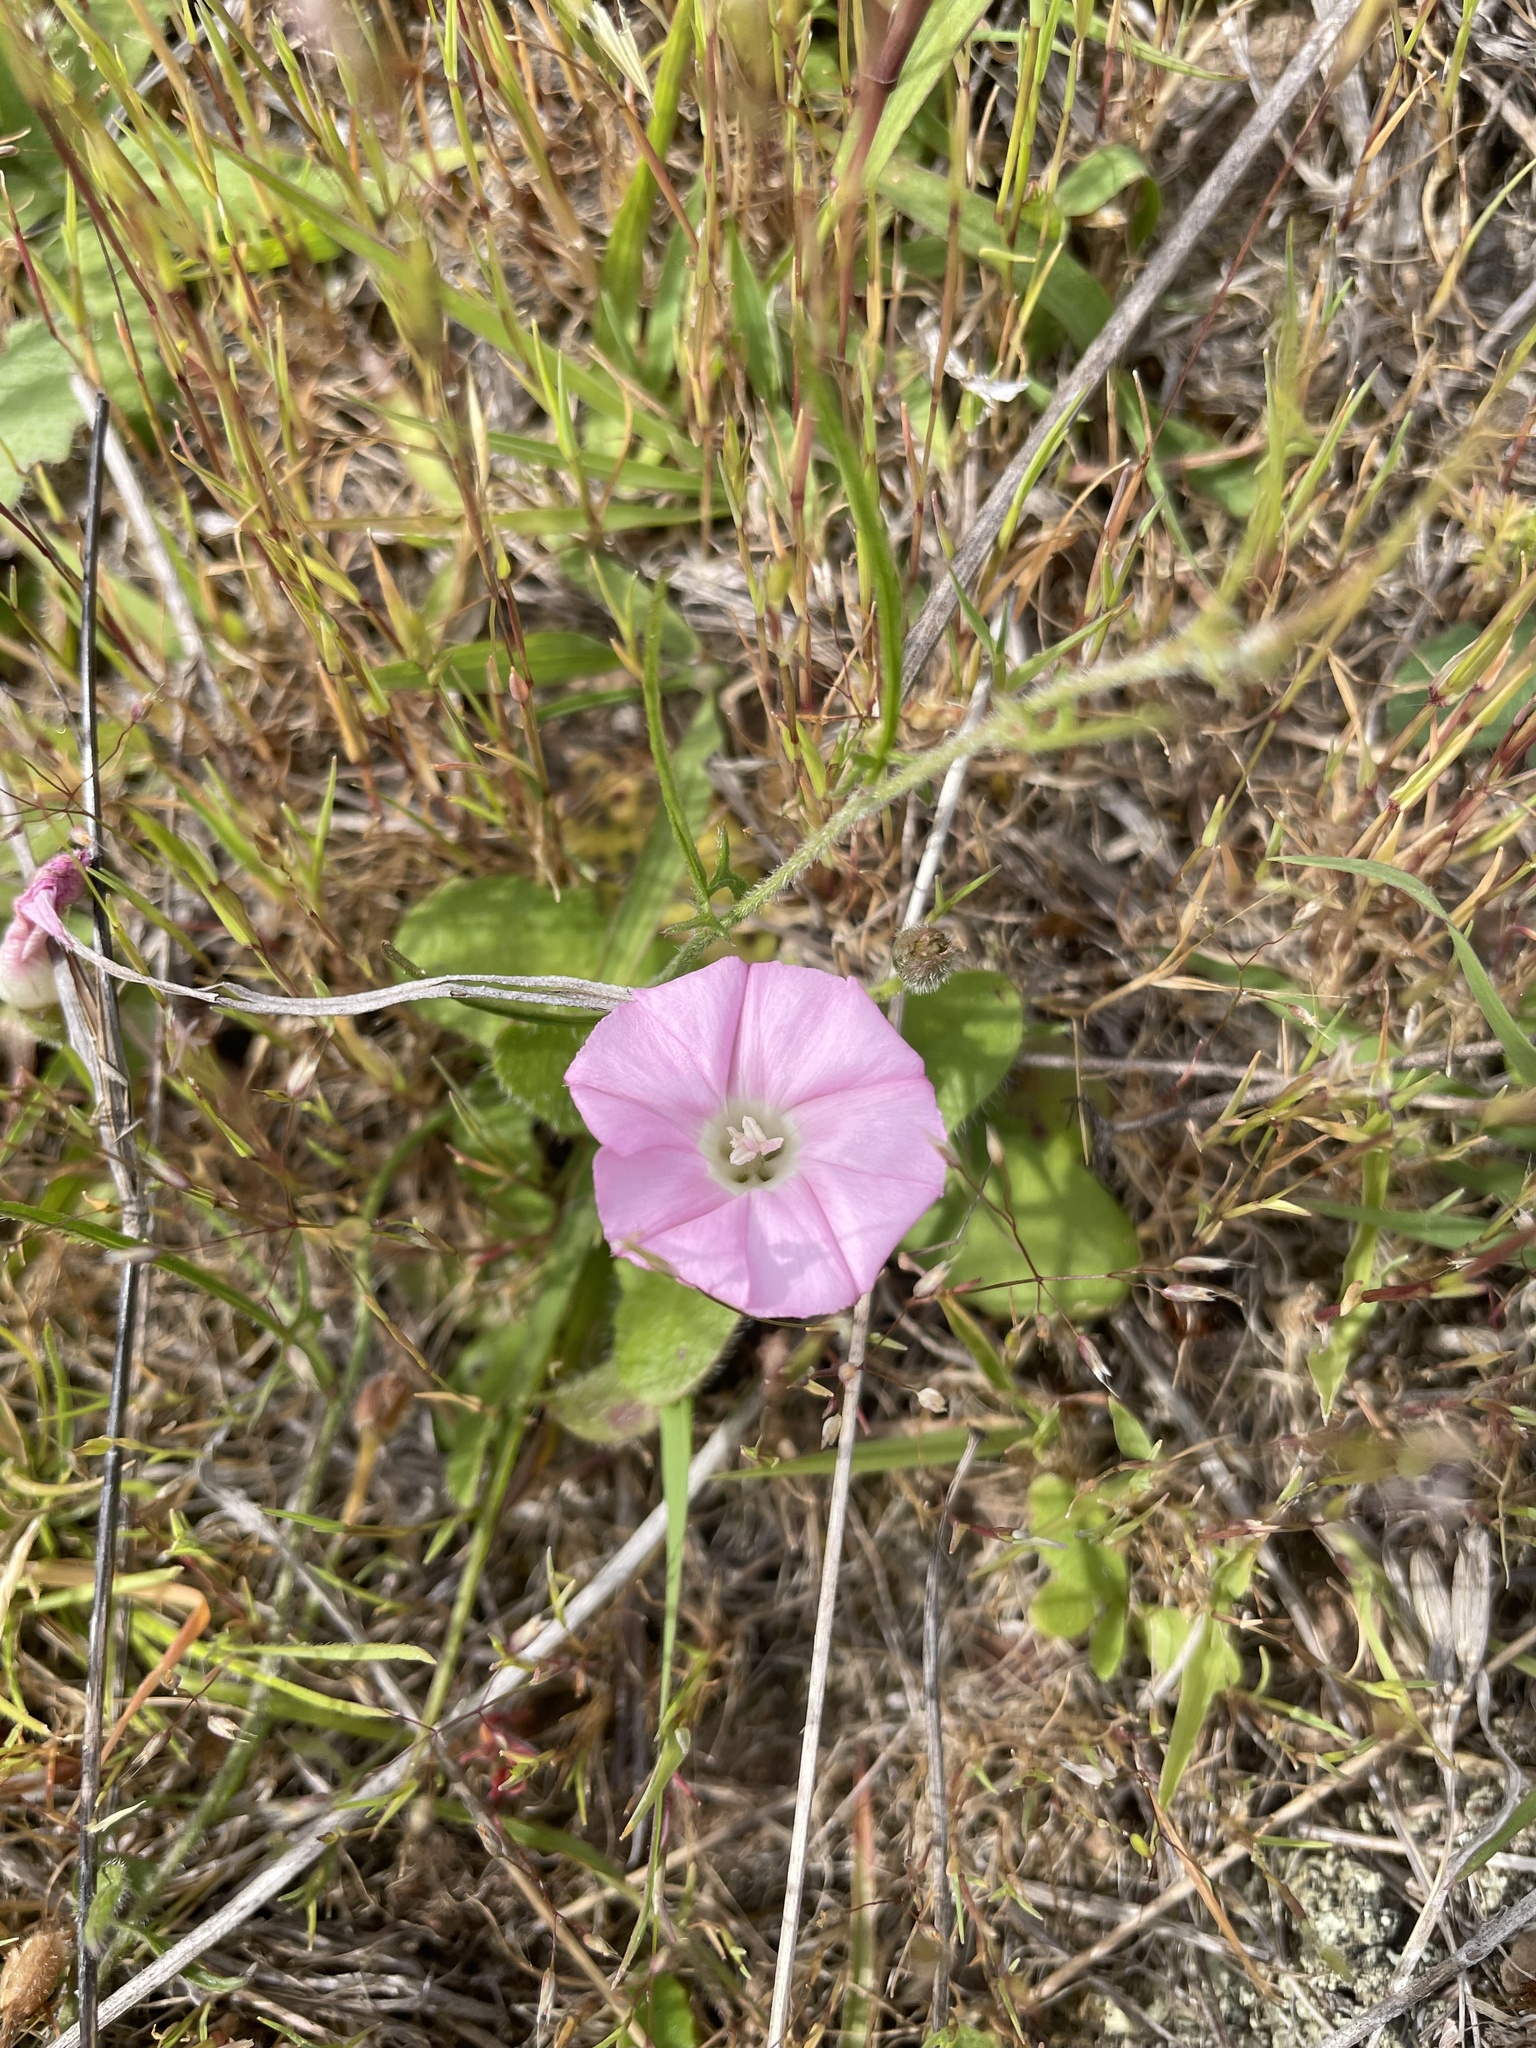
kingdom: Plantae
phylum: Tracheophyta
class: Magnoliopsida
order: Solanales
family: Convolvulaceae
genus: Convolvulus
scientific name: Convolvulus angustissimus
